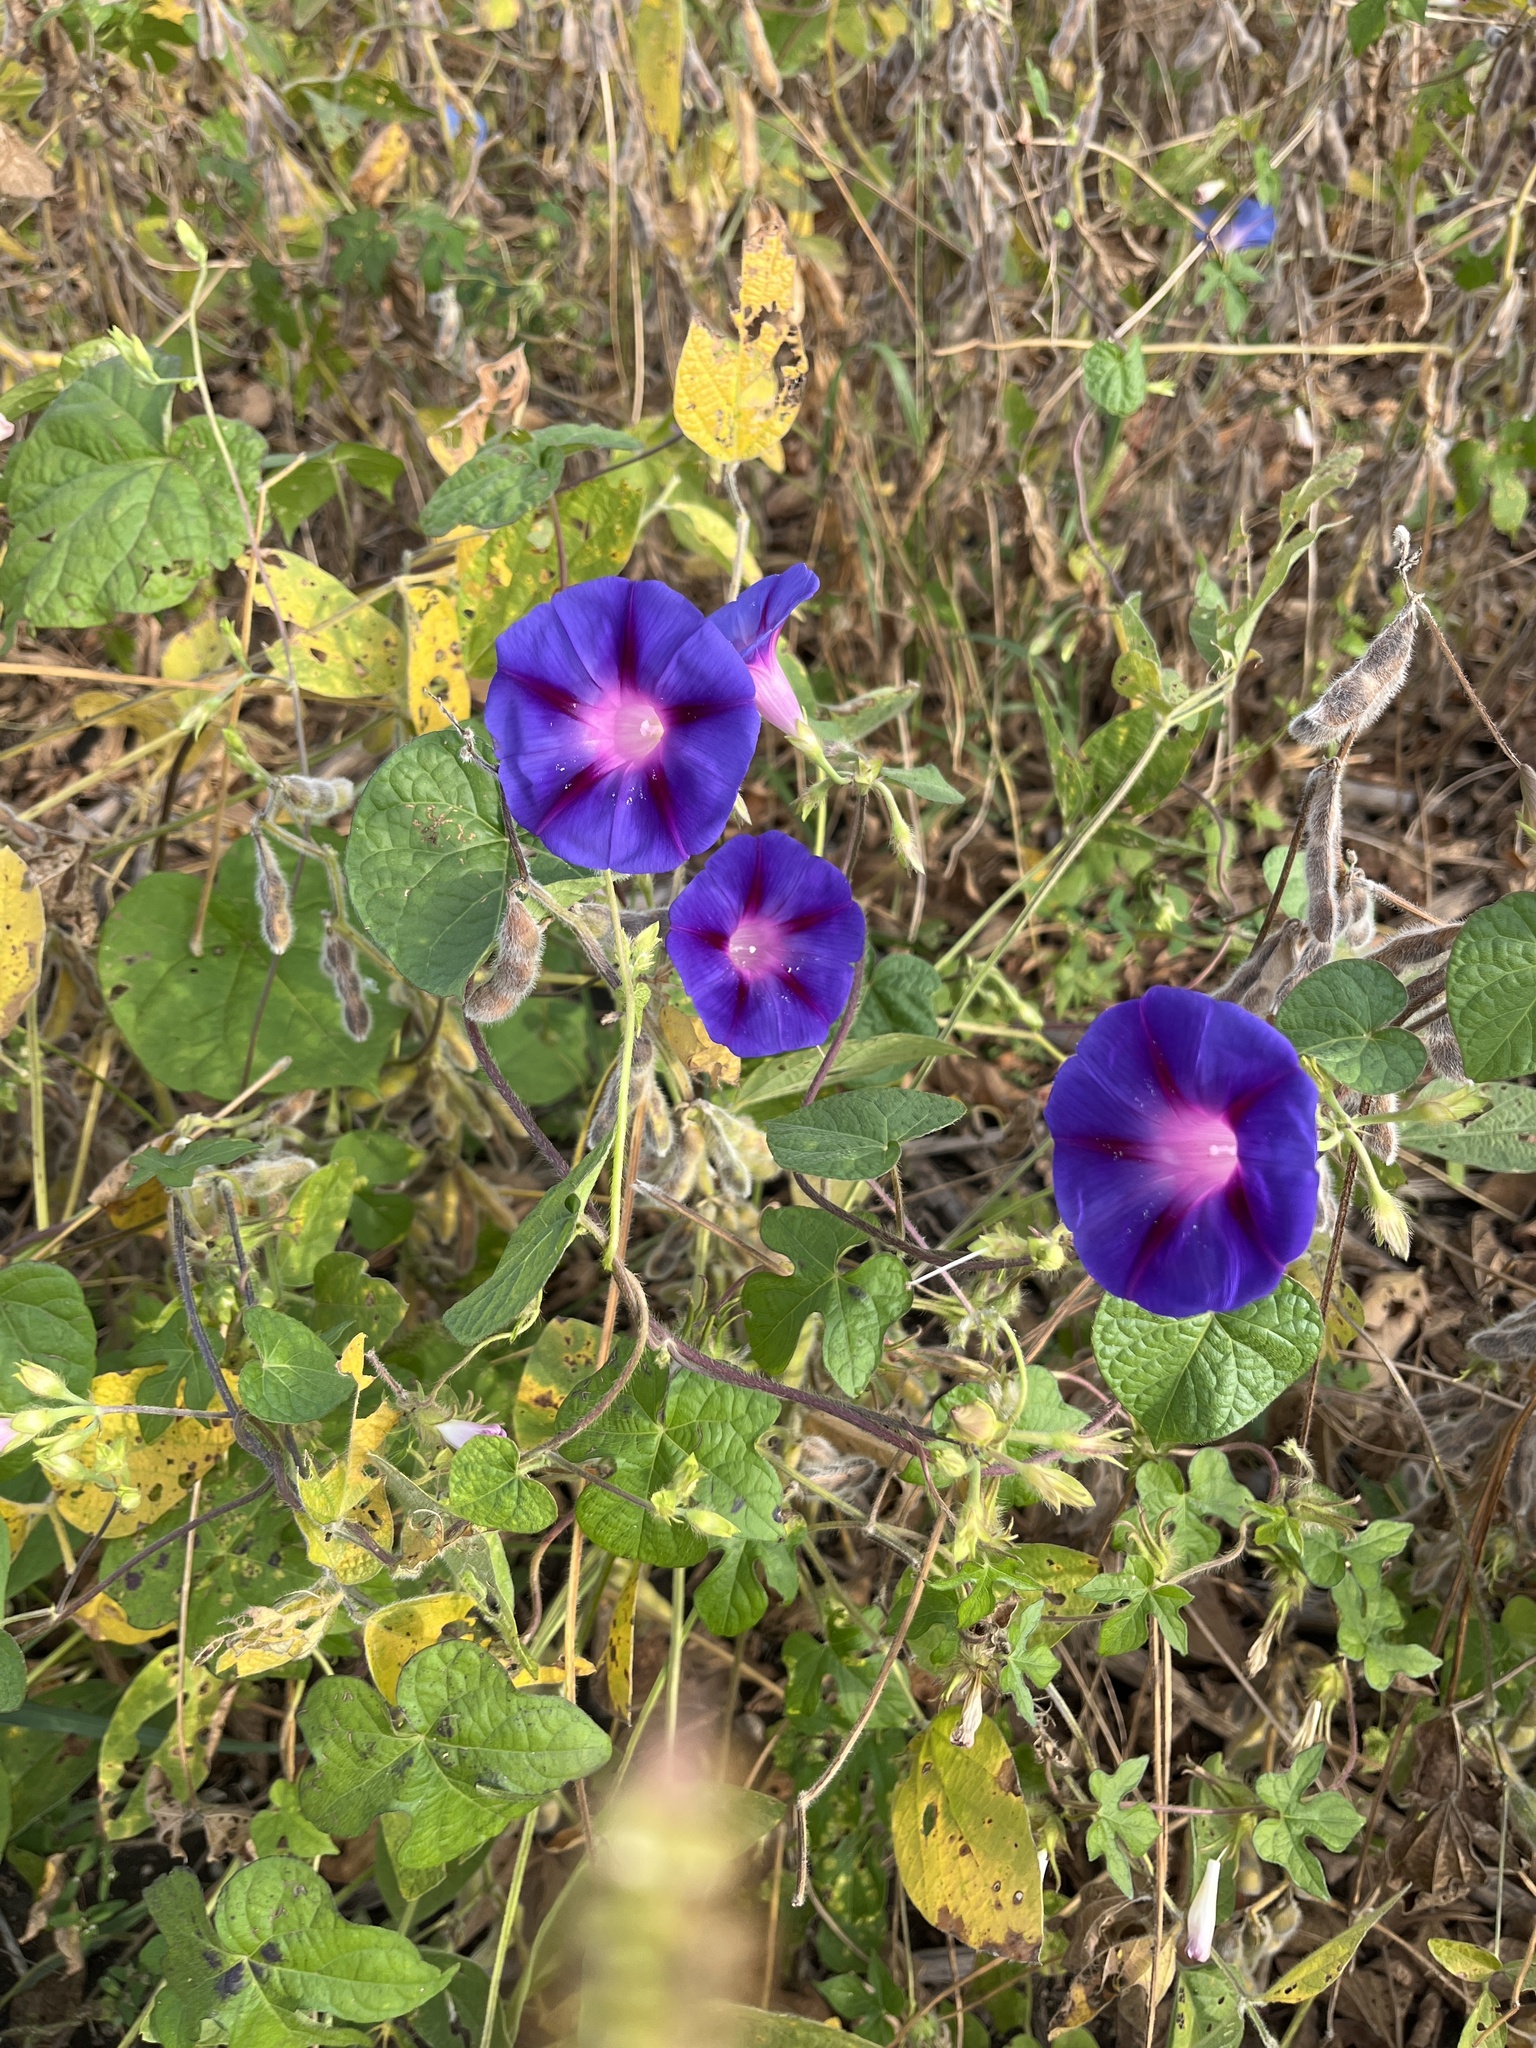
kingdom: Plantae
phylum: Tracheophyta
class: Magnoliopsida
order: Solanales
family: Convolvulaceae
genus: Ipomoea
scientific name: Ipomoea purpurea
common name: Common morning-glory
